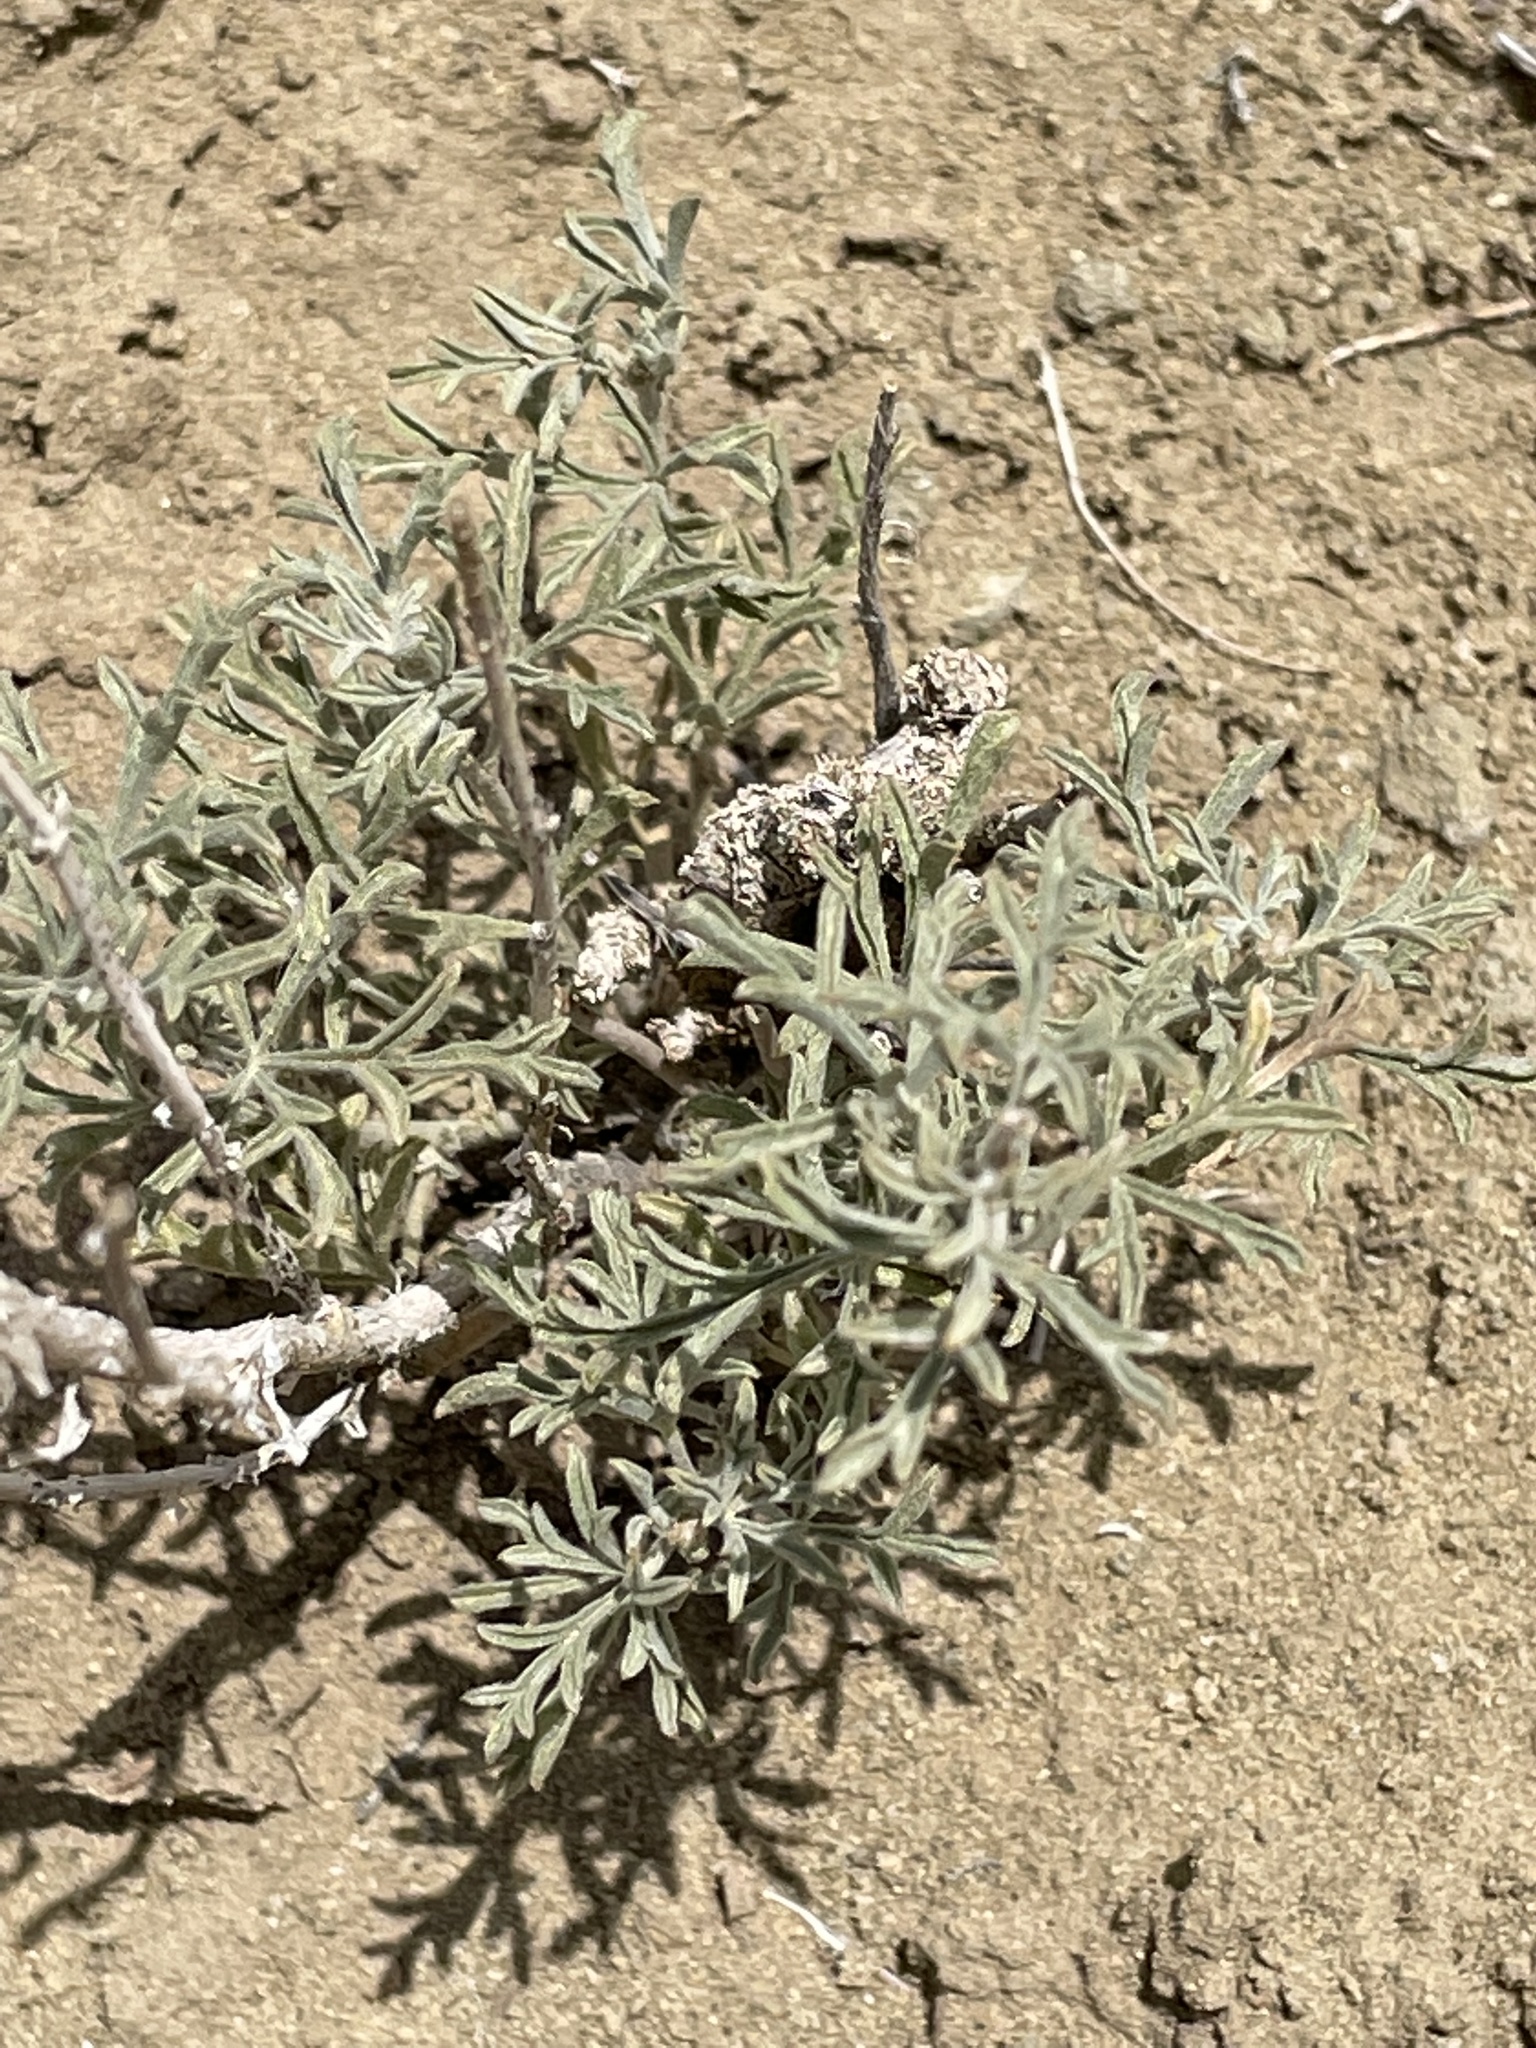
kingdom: Plantae
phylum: Tracheophyta
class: Magnoliopsida
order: Malvales
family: Malvaceae
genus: Sphaeralcea
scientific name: Sphaeralcea coccinea
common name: Moss-rose
